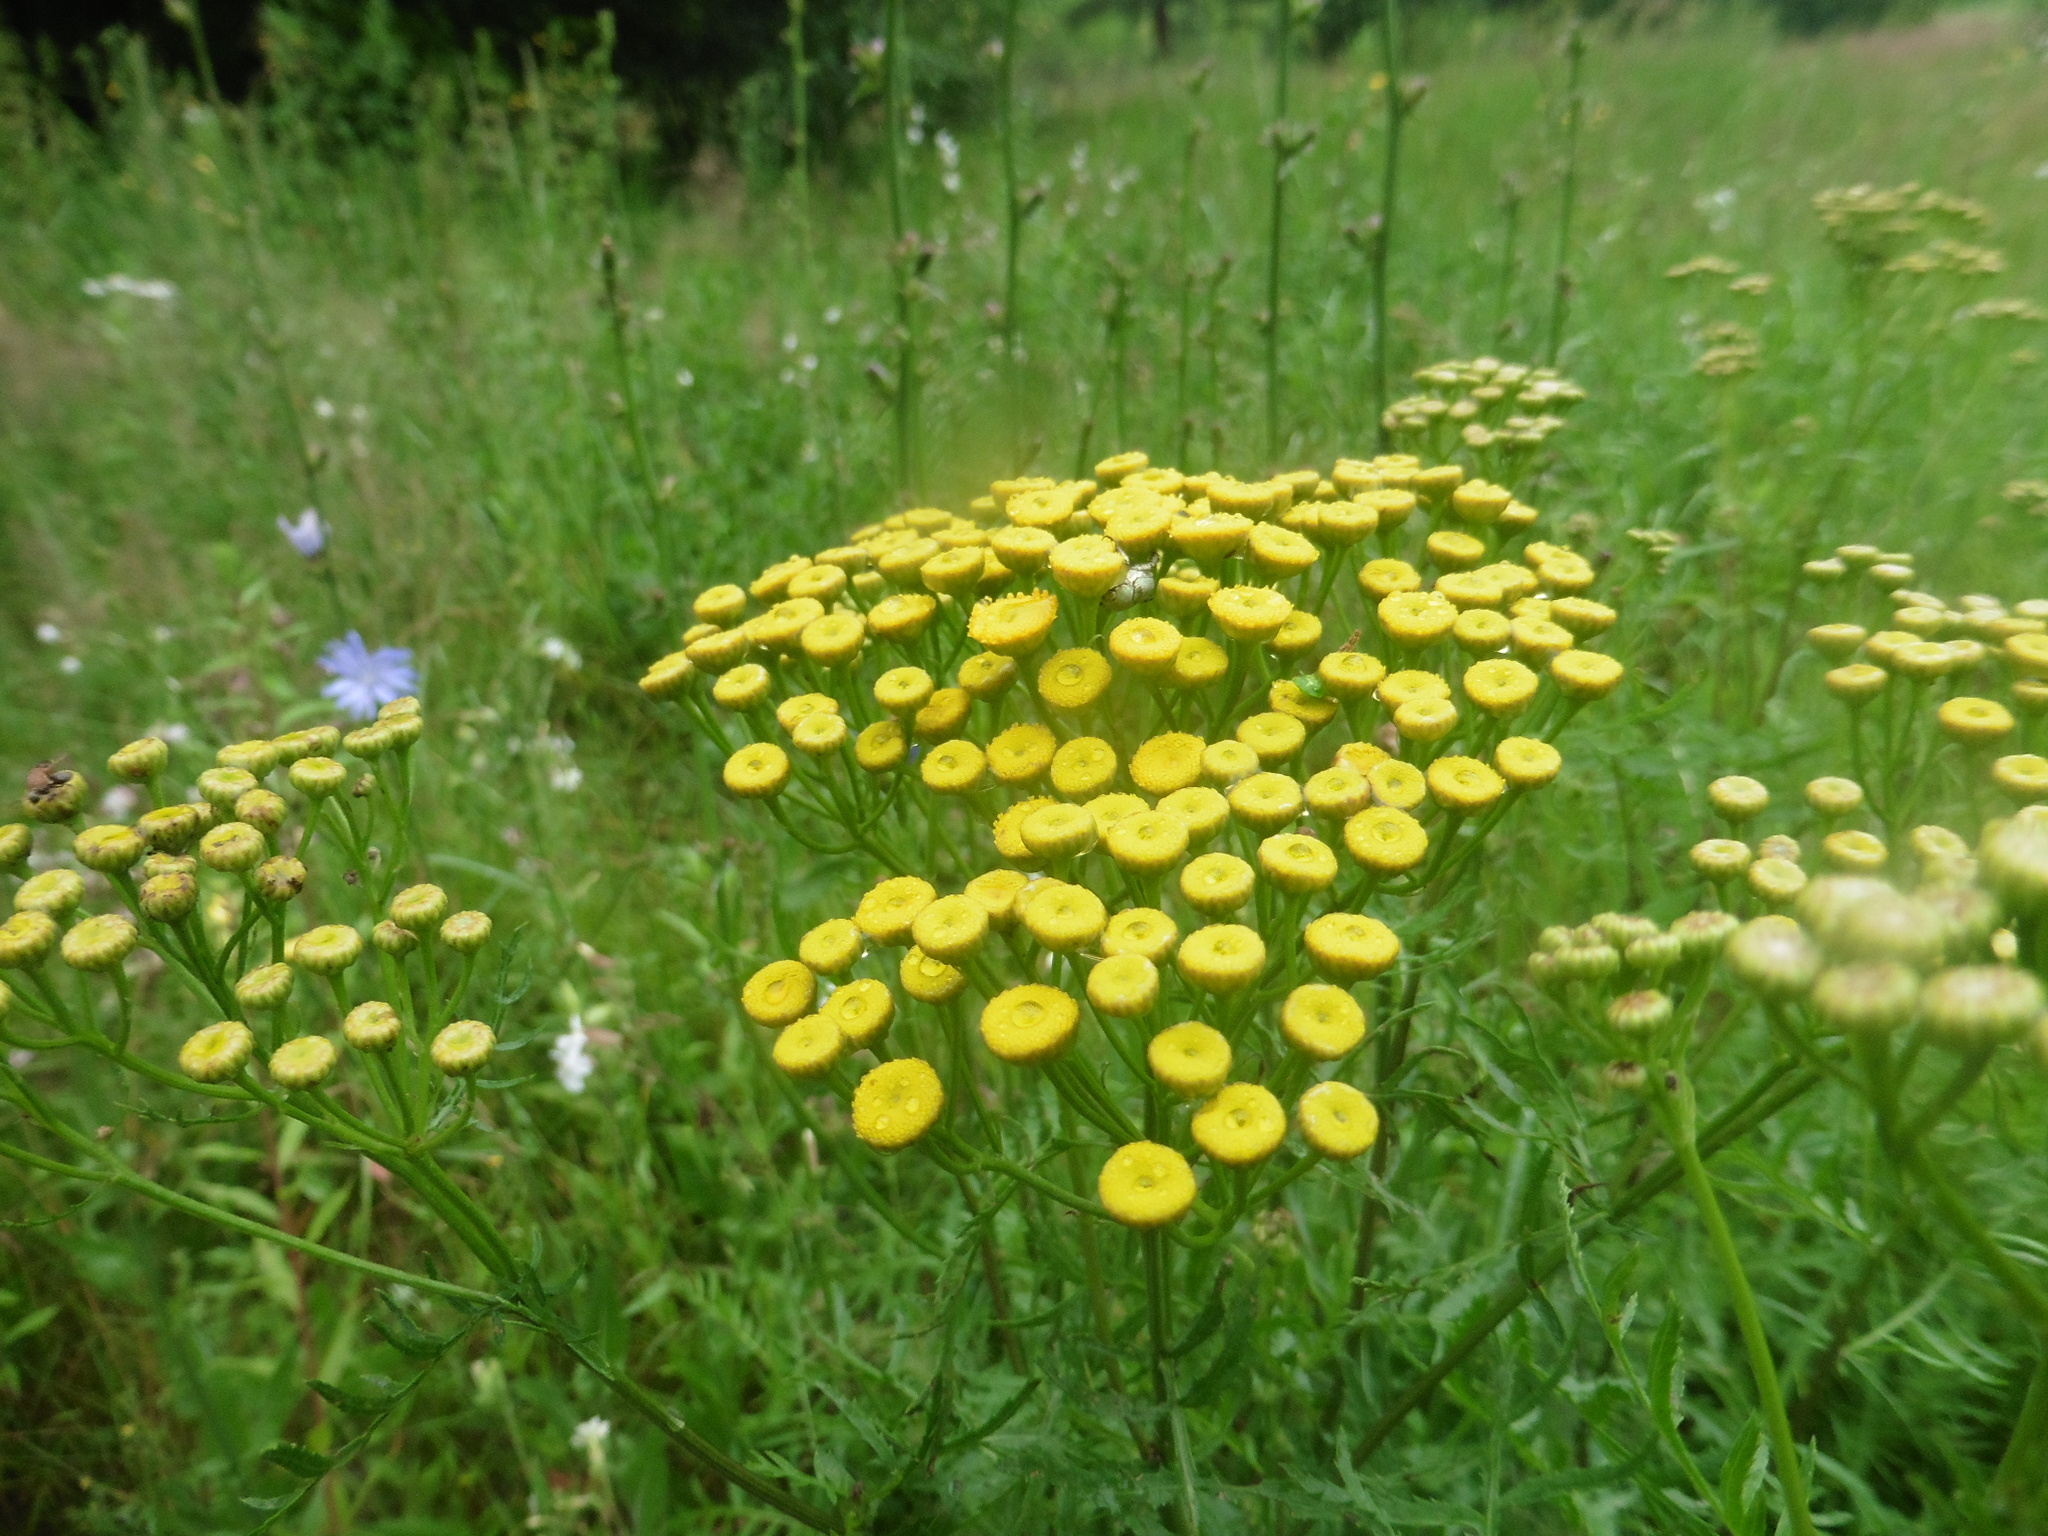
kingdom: Plantae
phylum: Tracheophyta
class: Magnoliopsida
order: Asterales
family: Asteraceae
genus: Tanacetum
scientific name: Tanacetum vulgare
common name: Common tansy
